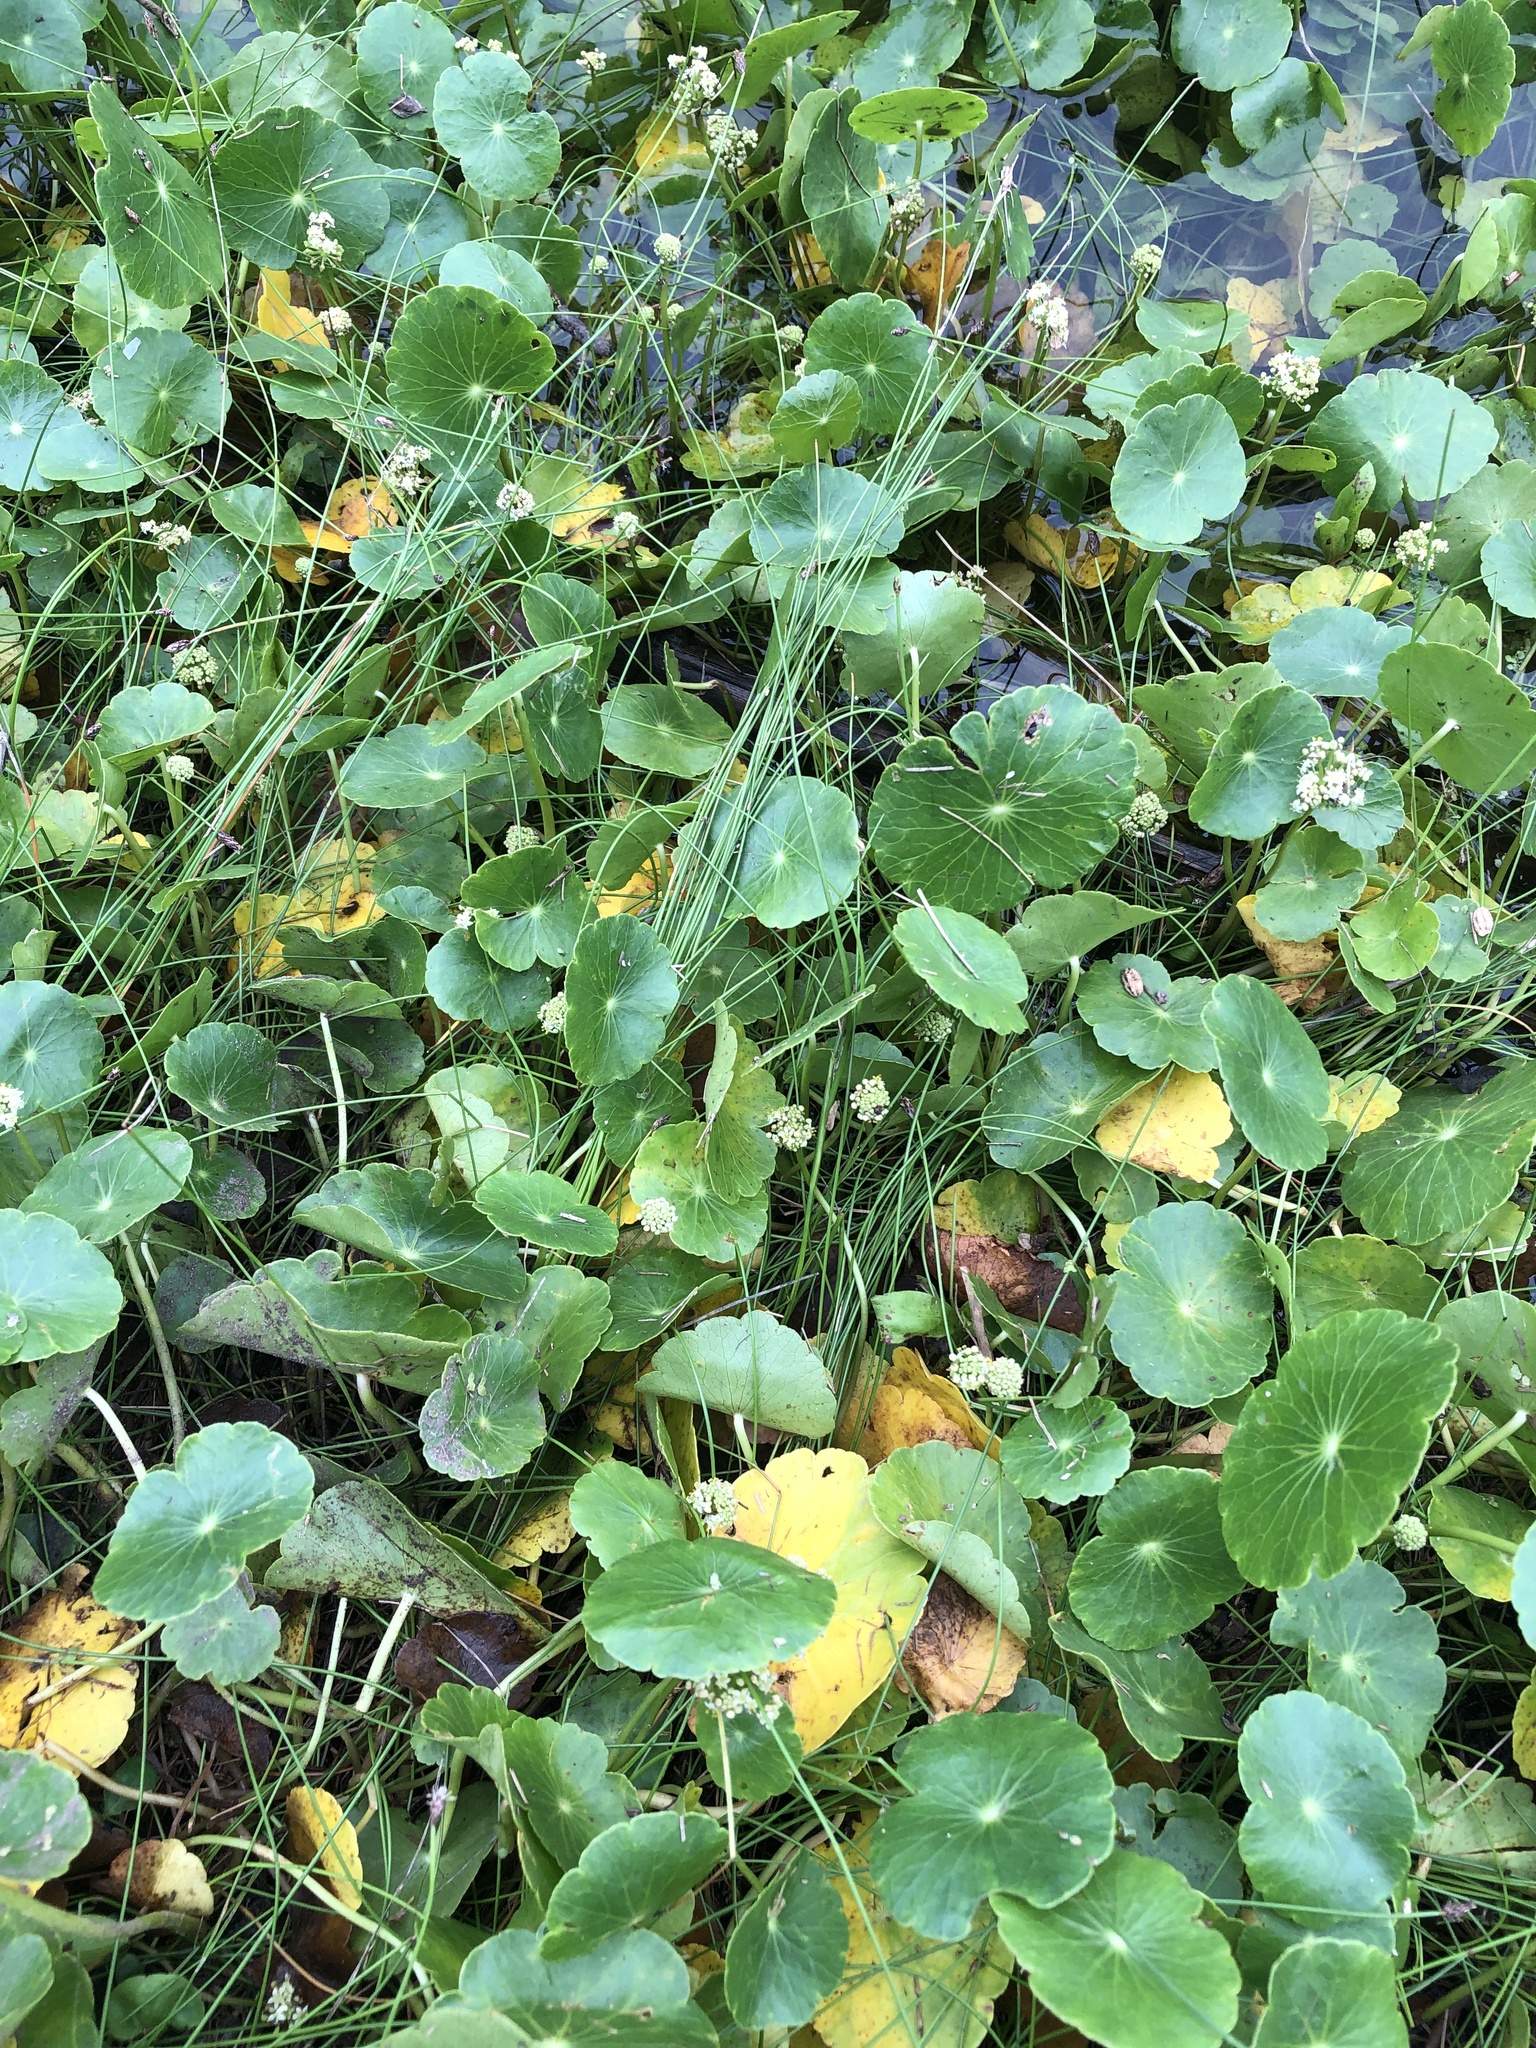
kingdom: Plantae
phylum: Tracheophyta
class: Magnoliopsida
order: Apiales
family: Araliaceae
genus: Hydrocotyle
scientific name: Hydrocotyle umbellata
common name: Water pennywort
